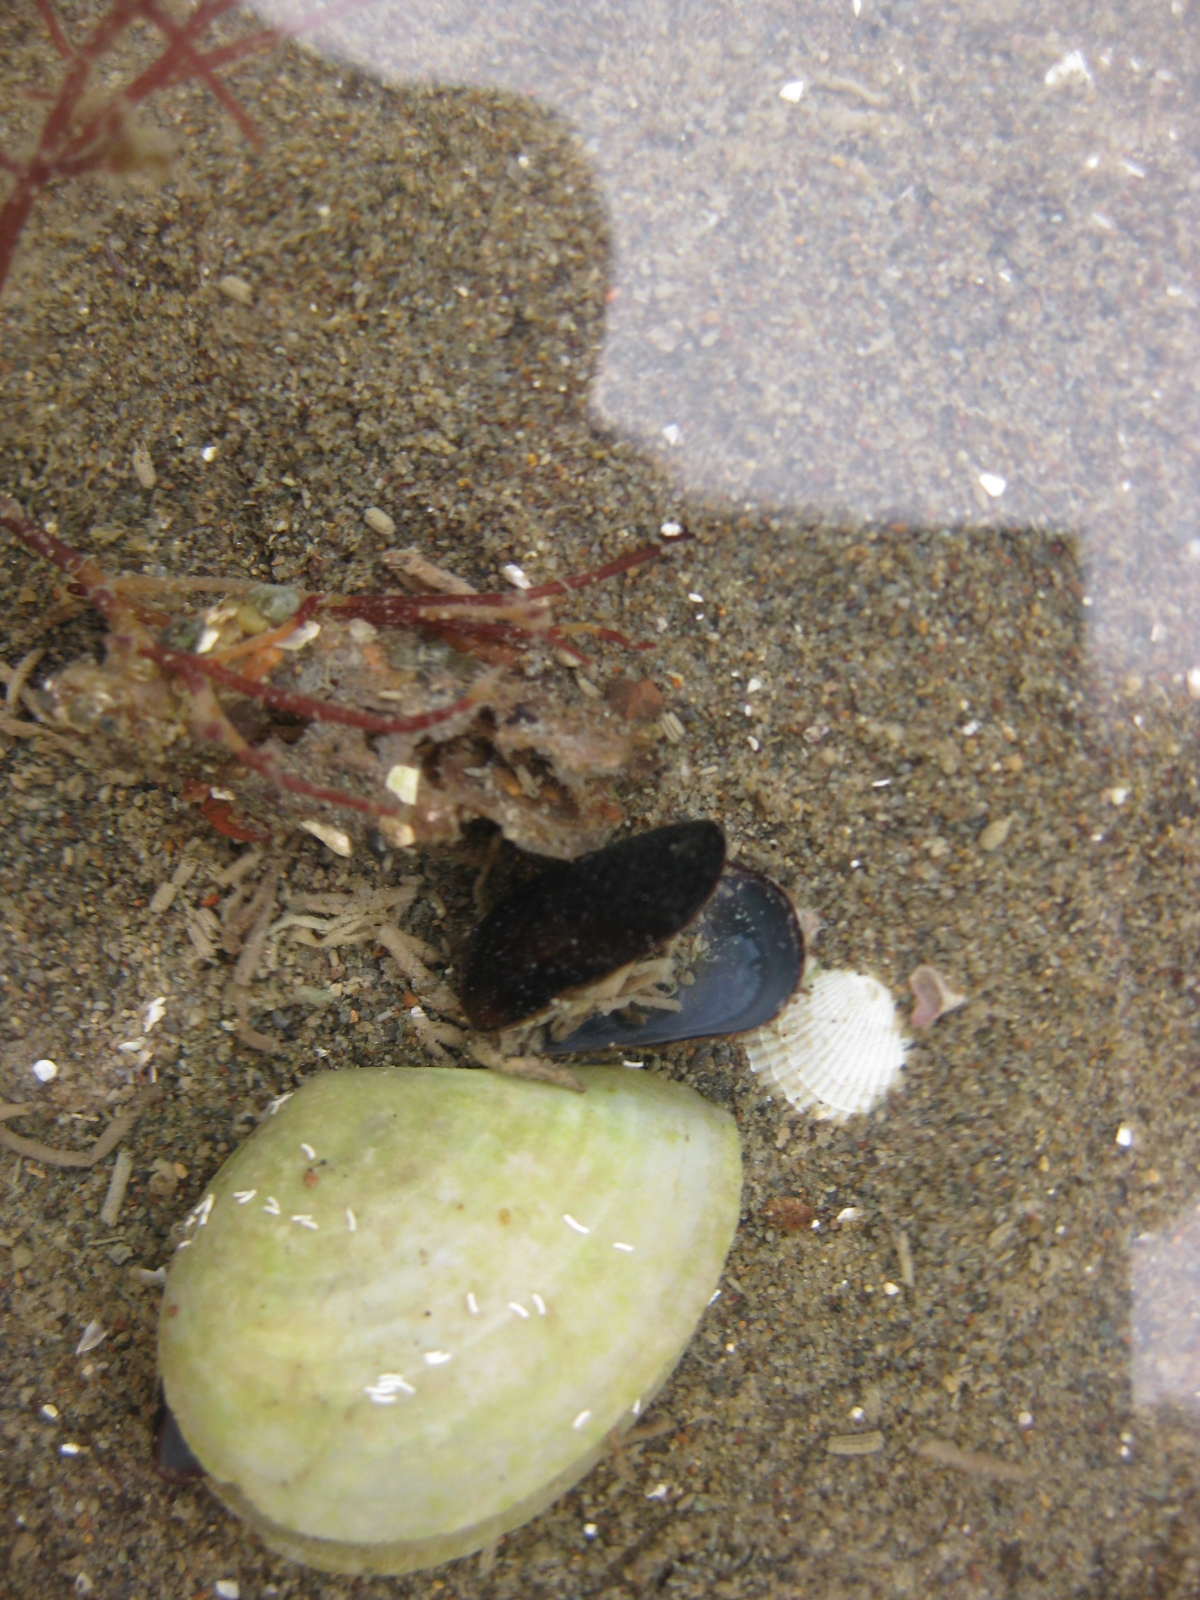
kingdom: Animalia
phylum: Mollusca
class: Bivalvia
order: Mytilida
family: Mytilidae
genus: Xenostrobus
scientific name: Xenostrobus neozelanicus
